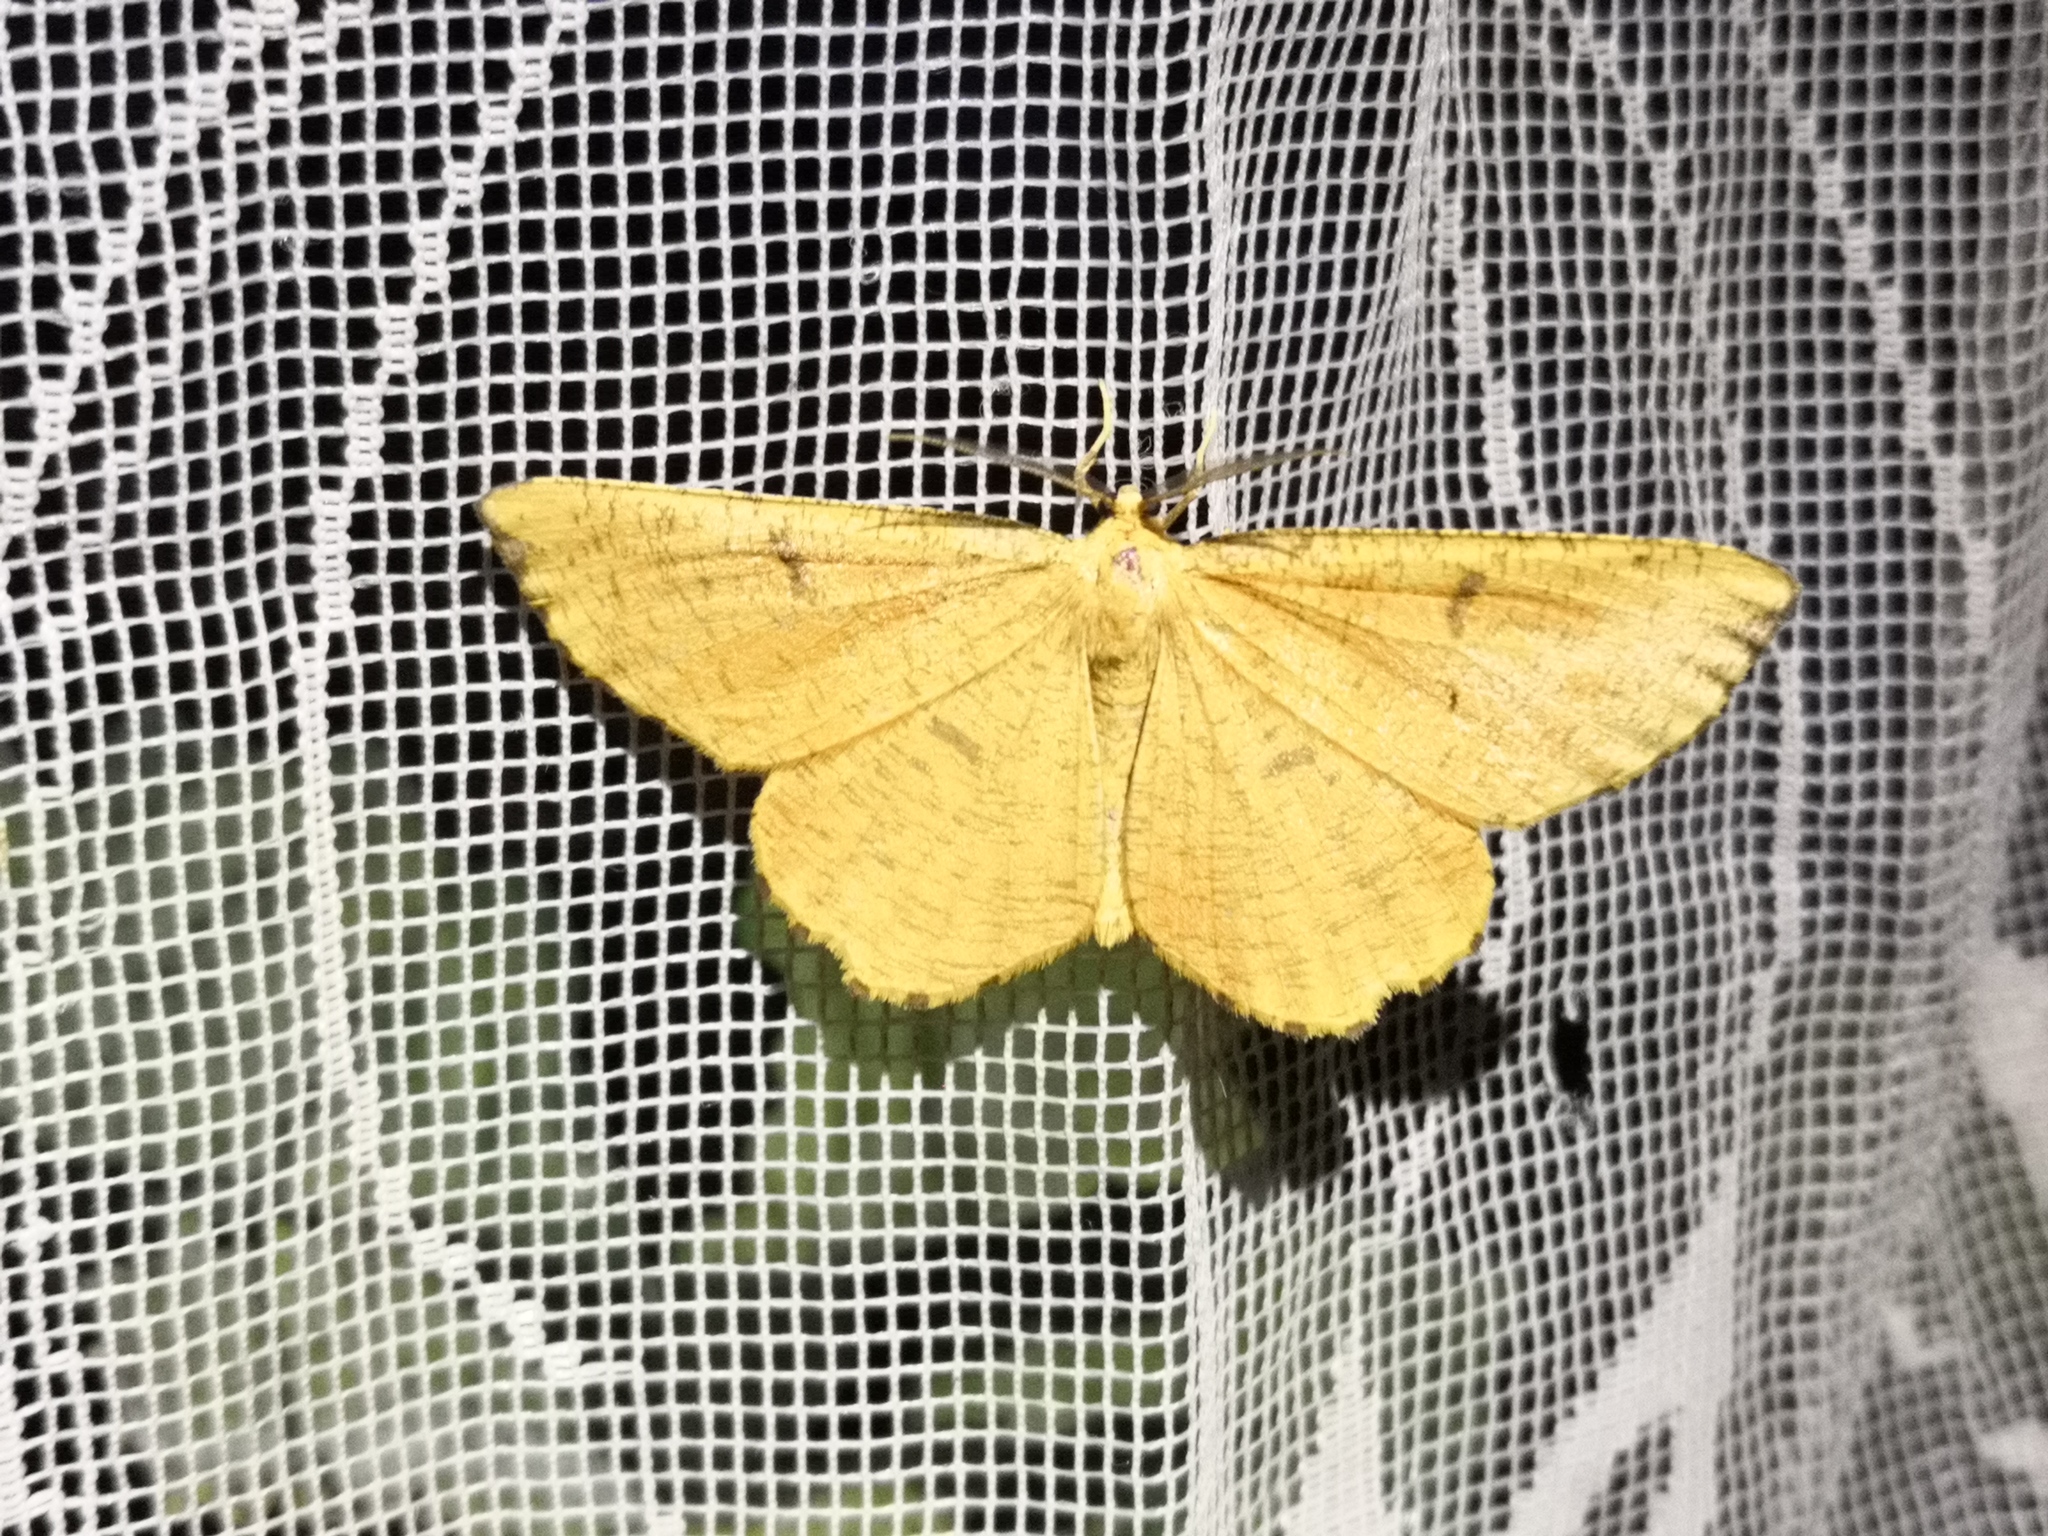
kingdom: Animalia
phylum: Arthropoda
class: Insecta
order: Lepidoptera
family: Geometridae
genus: Angerona
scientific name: Angerona prunaria
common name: Orange moth
